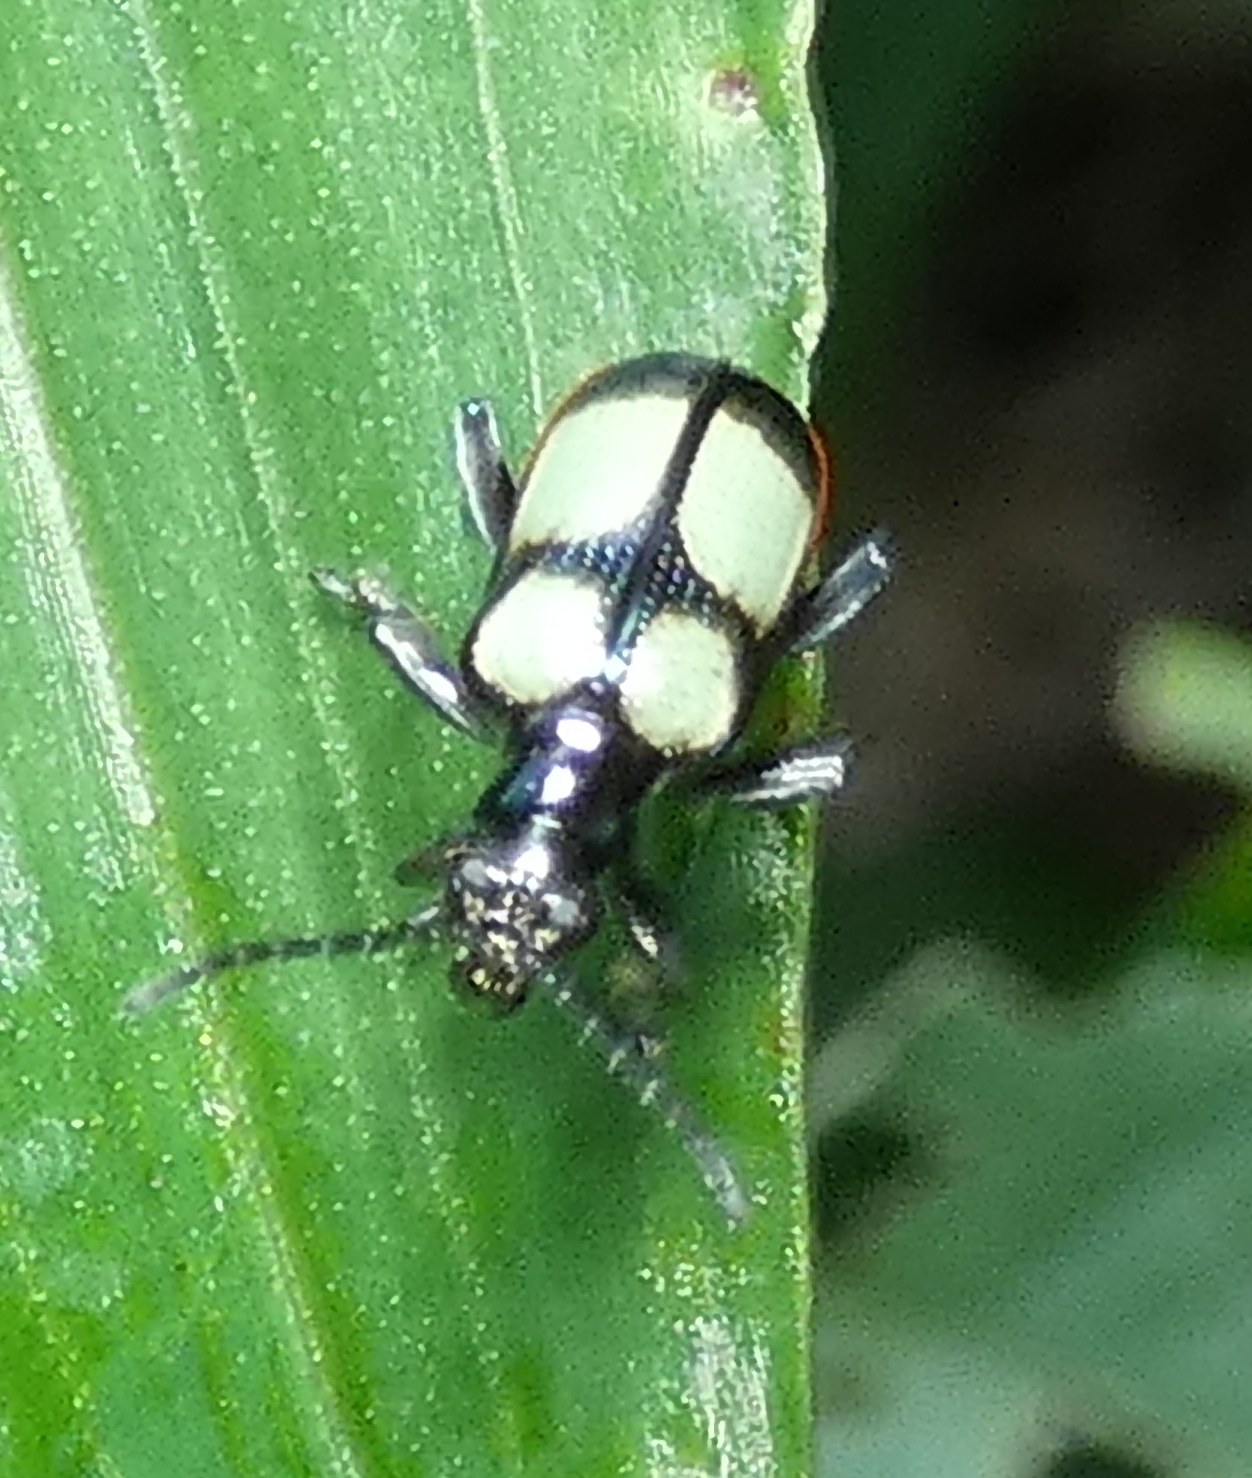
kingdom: Animalia
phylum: Arthropoda
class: Insecta
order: Coleoptera
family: Chrysomelidae
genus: Neolema
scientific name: Neolema
